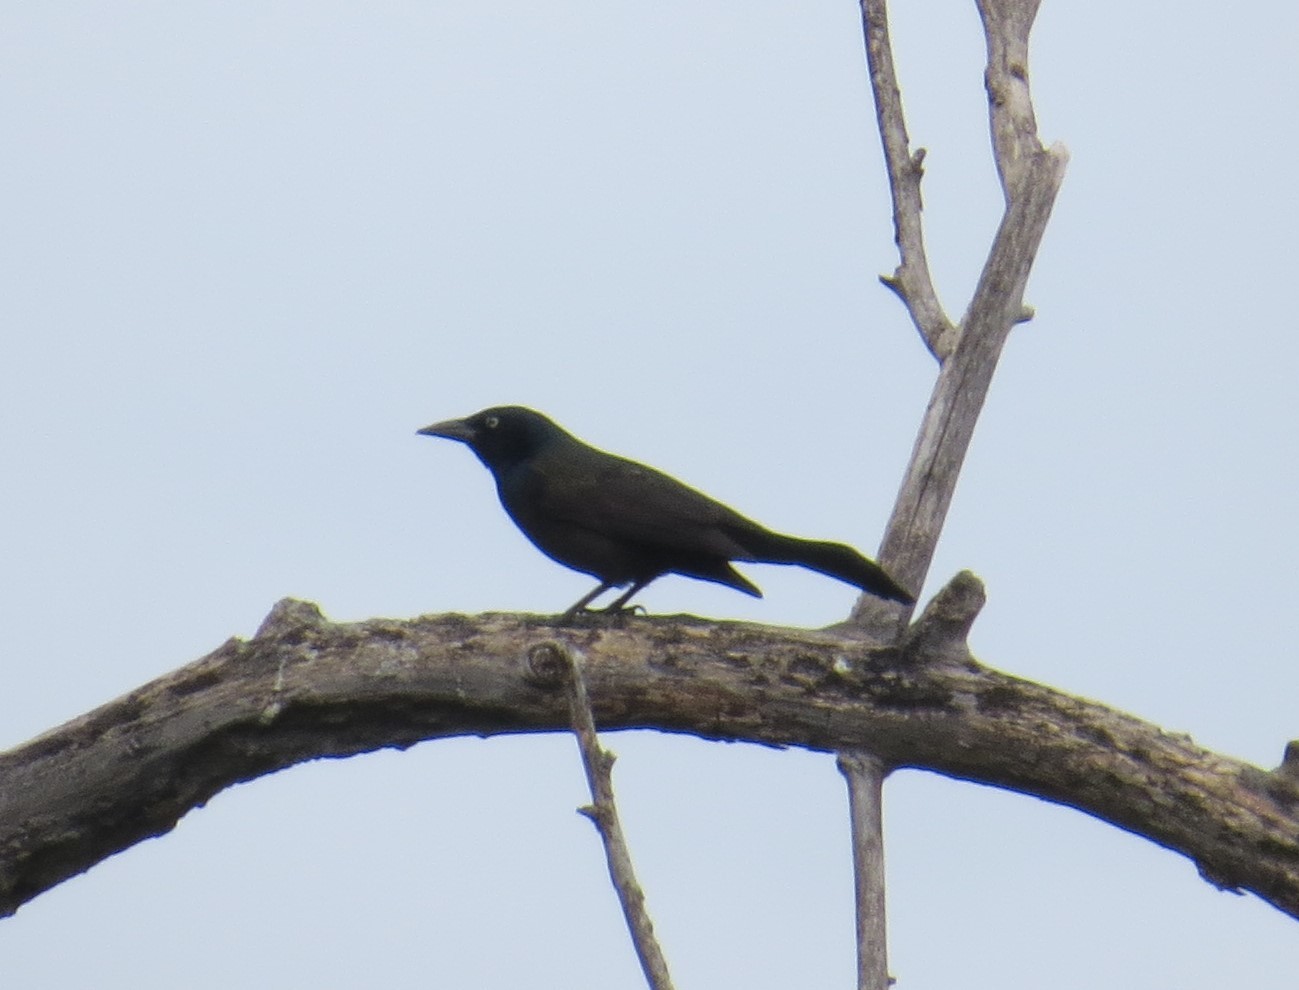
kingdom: Animalia
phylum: Chordata
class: Aves
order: Passeriformes
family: Icteridae
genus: Quiscalus
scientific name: Quiscalus quiscula
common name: Common grackle
